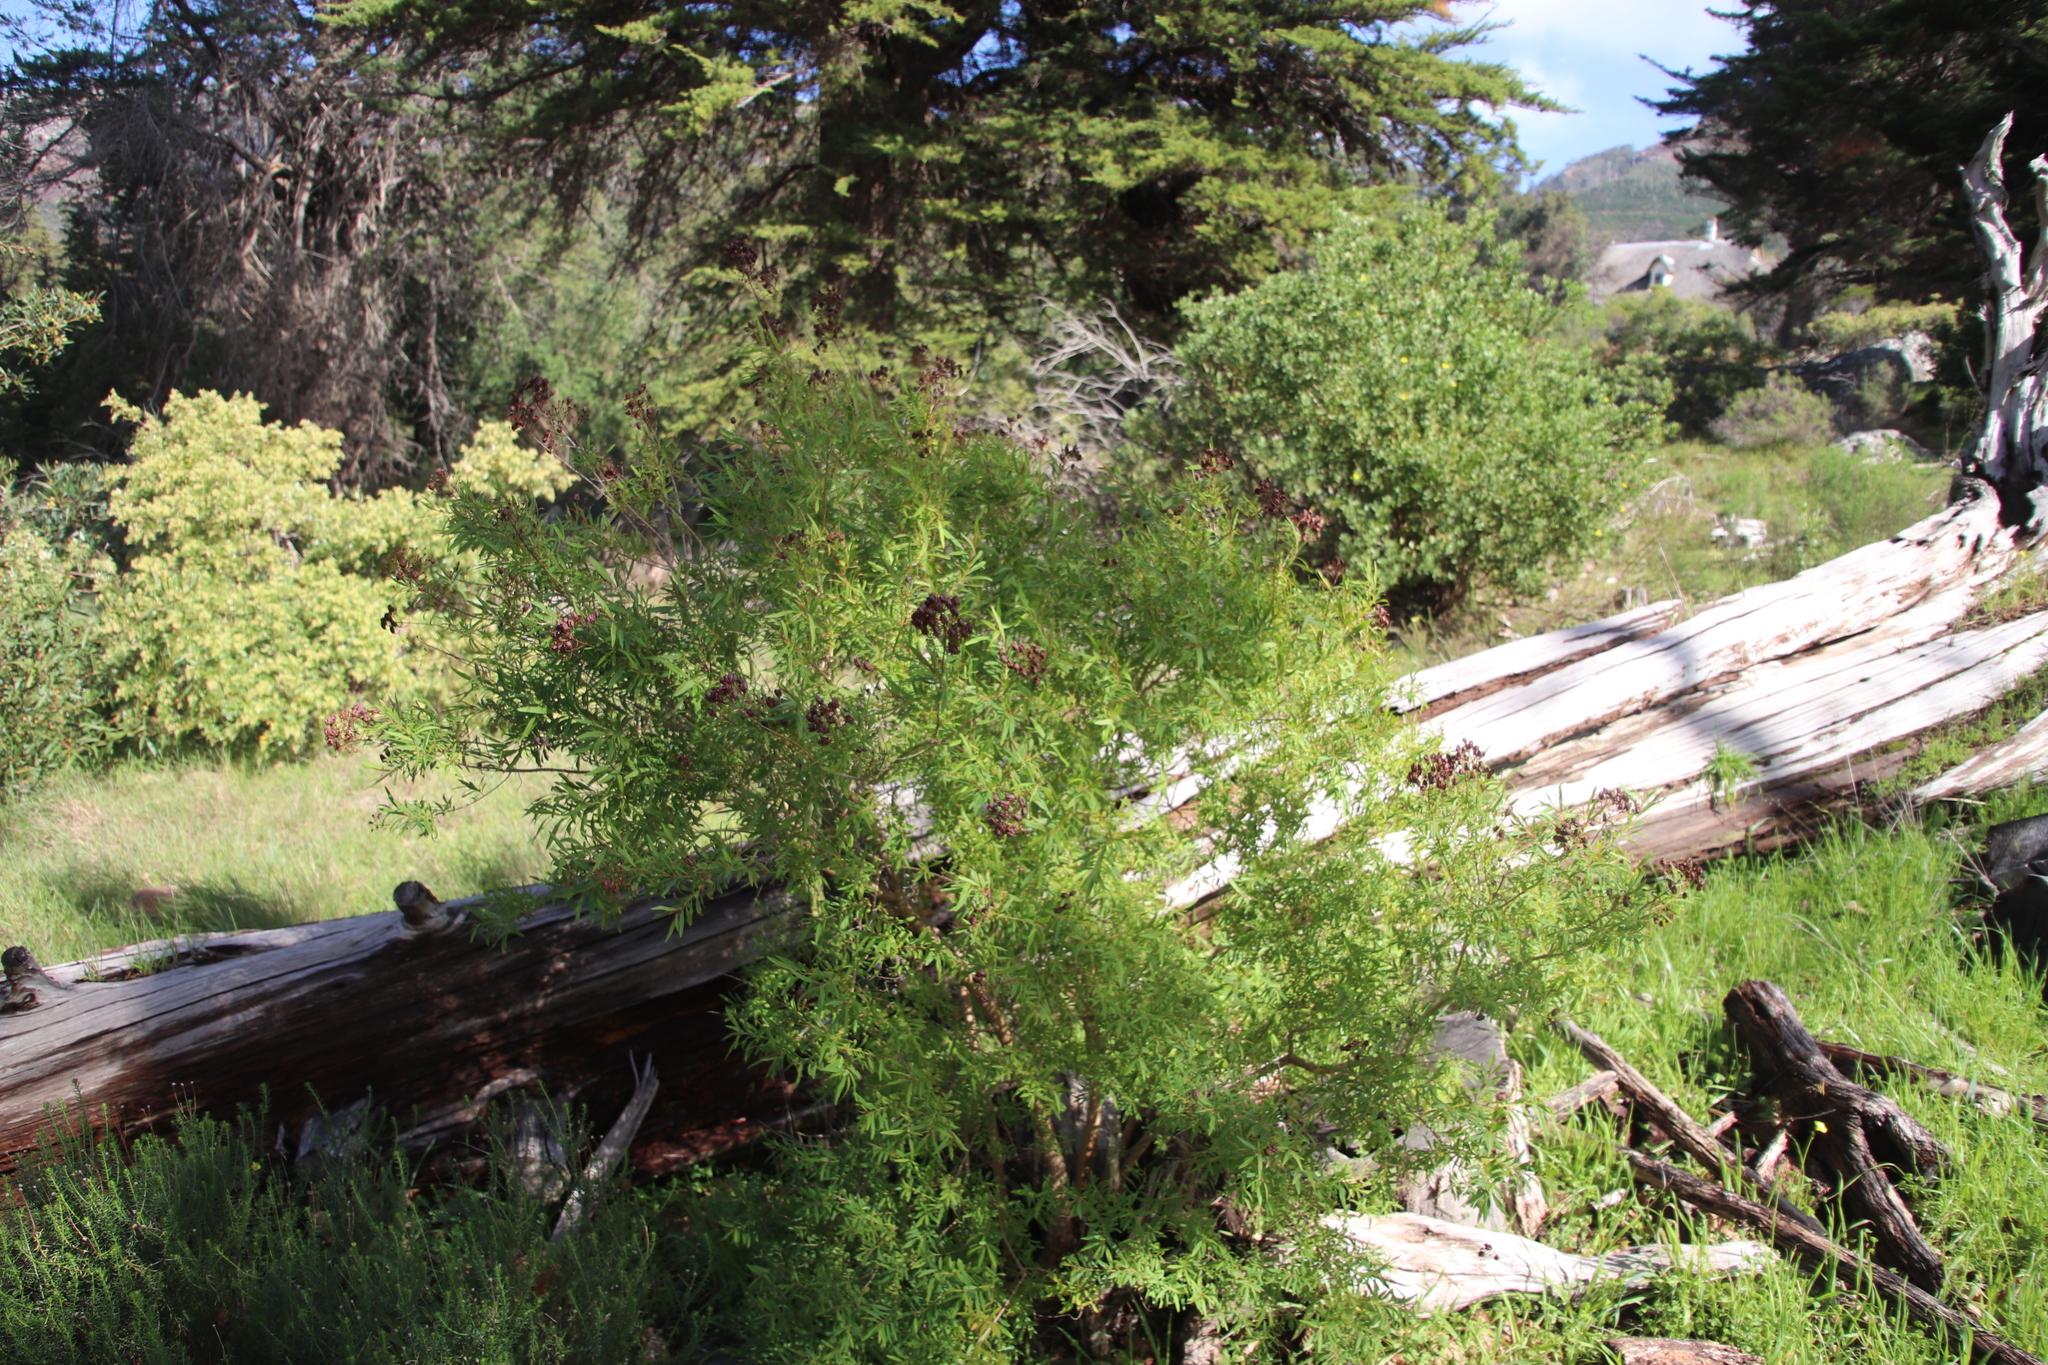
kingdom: Plantae
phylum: Tracheophyta
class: Magnoliopsida
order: Malpighiales
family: Hypericaceae
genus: Hypericum
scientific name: Hypericum canariense
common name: Canary island st. johnswort
